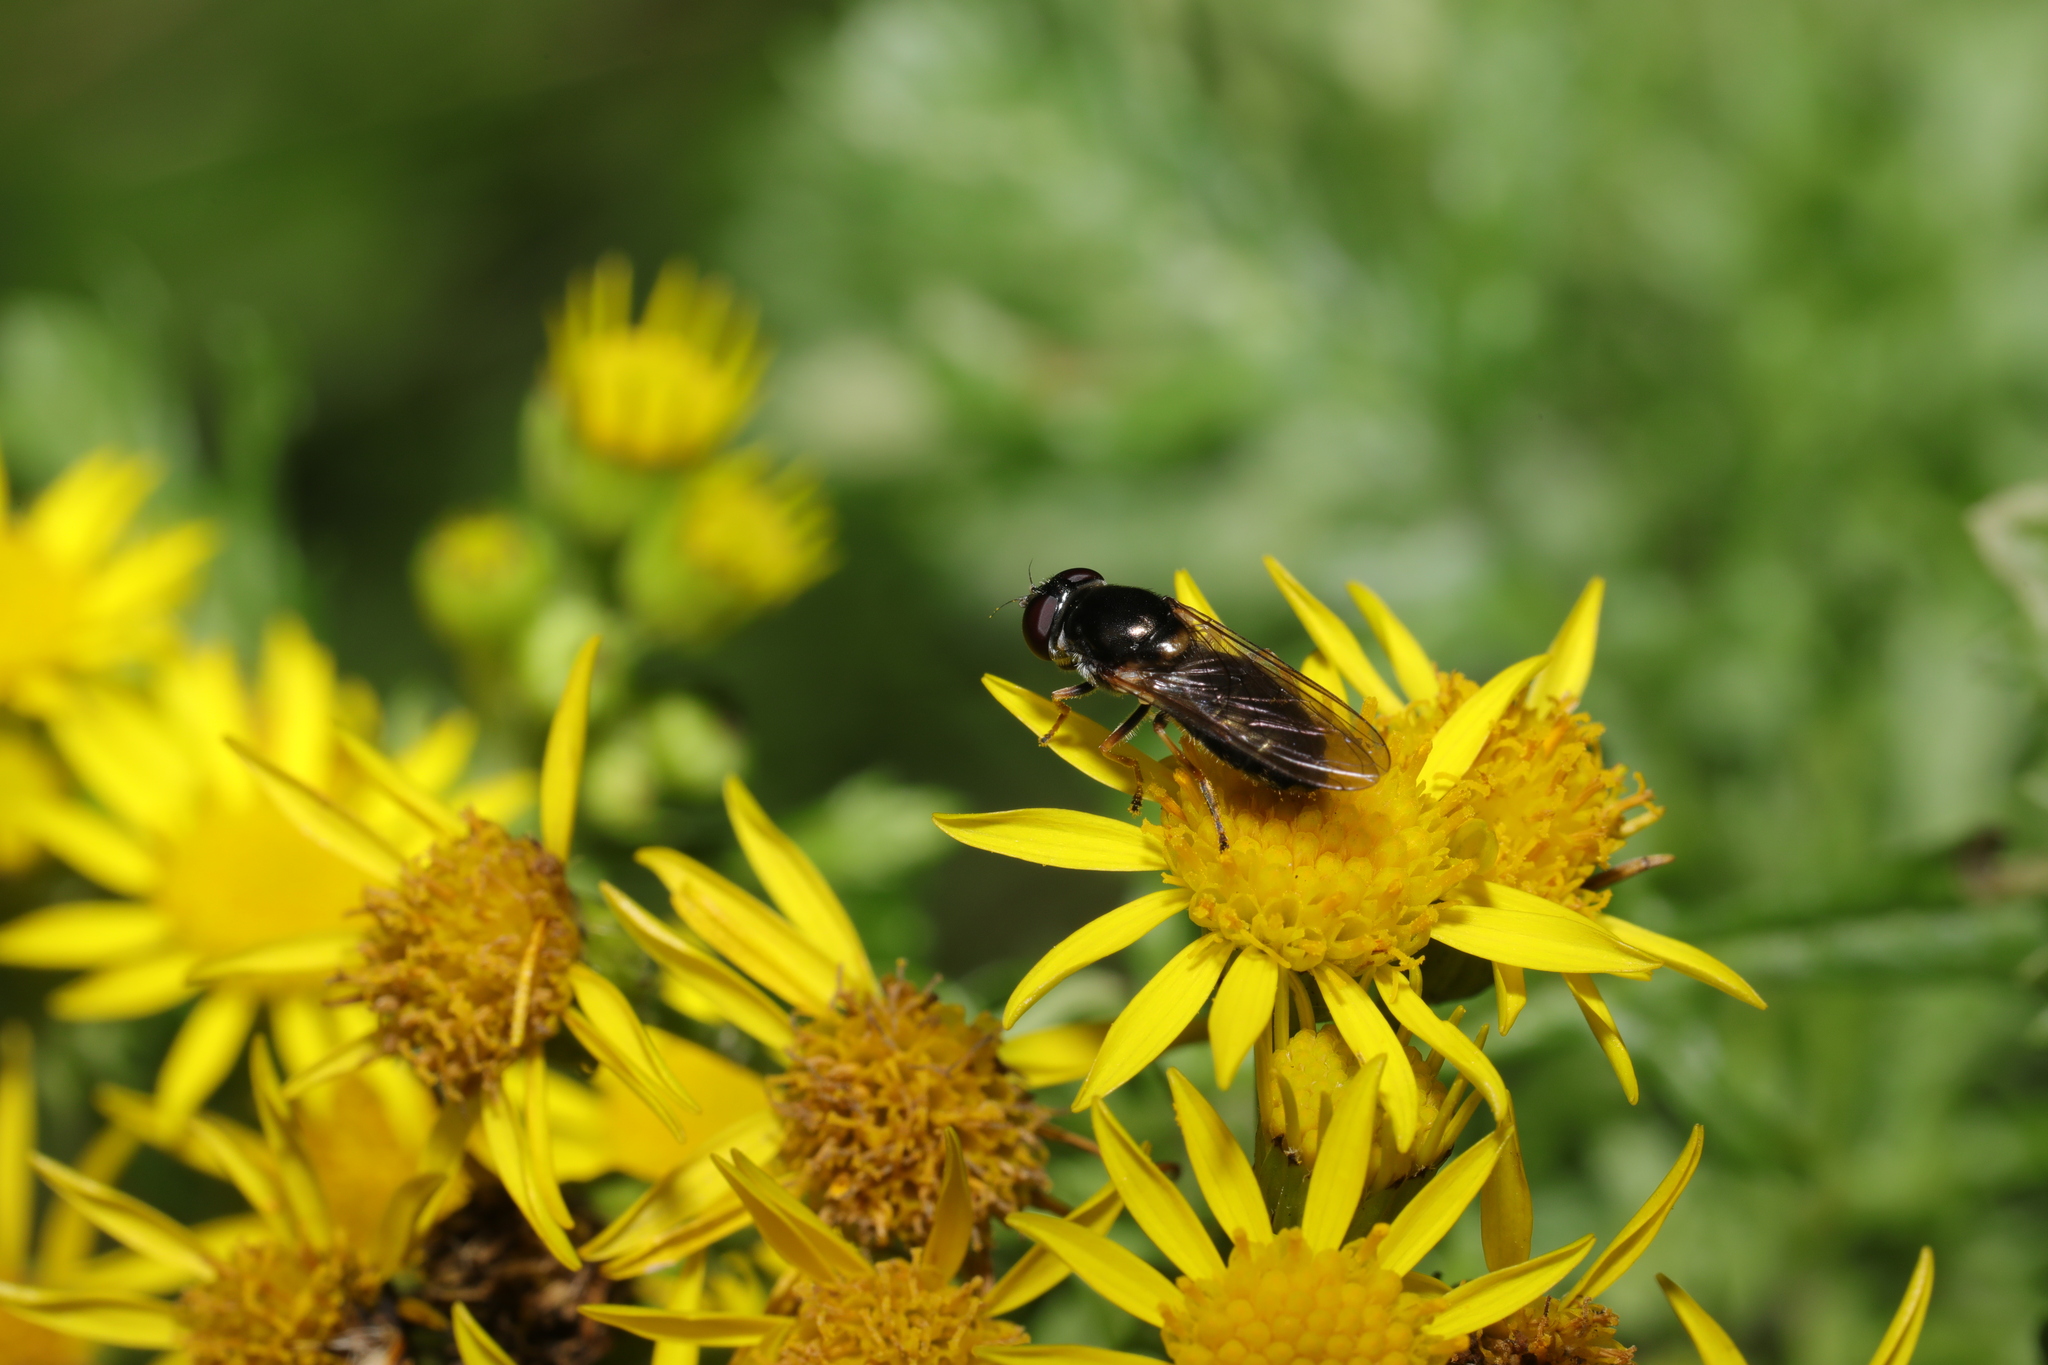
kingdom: Animalia
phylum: Arthropoda
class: Insecta
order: Diptera
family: Syrphidae
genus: Eucartosyrphus
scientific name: Eucartosyrphus
